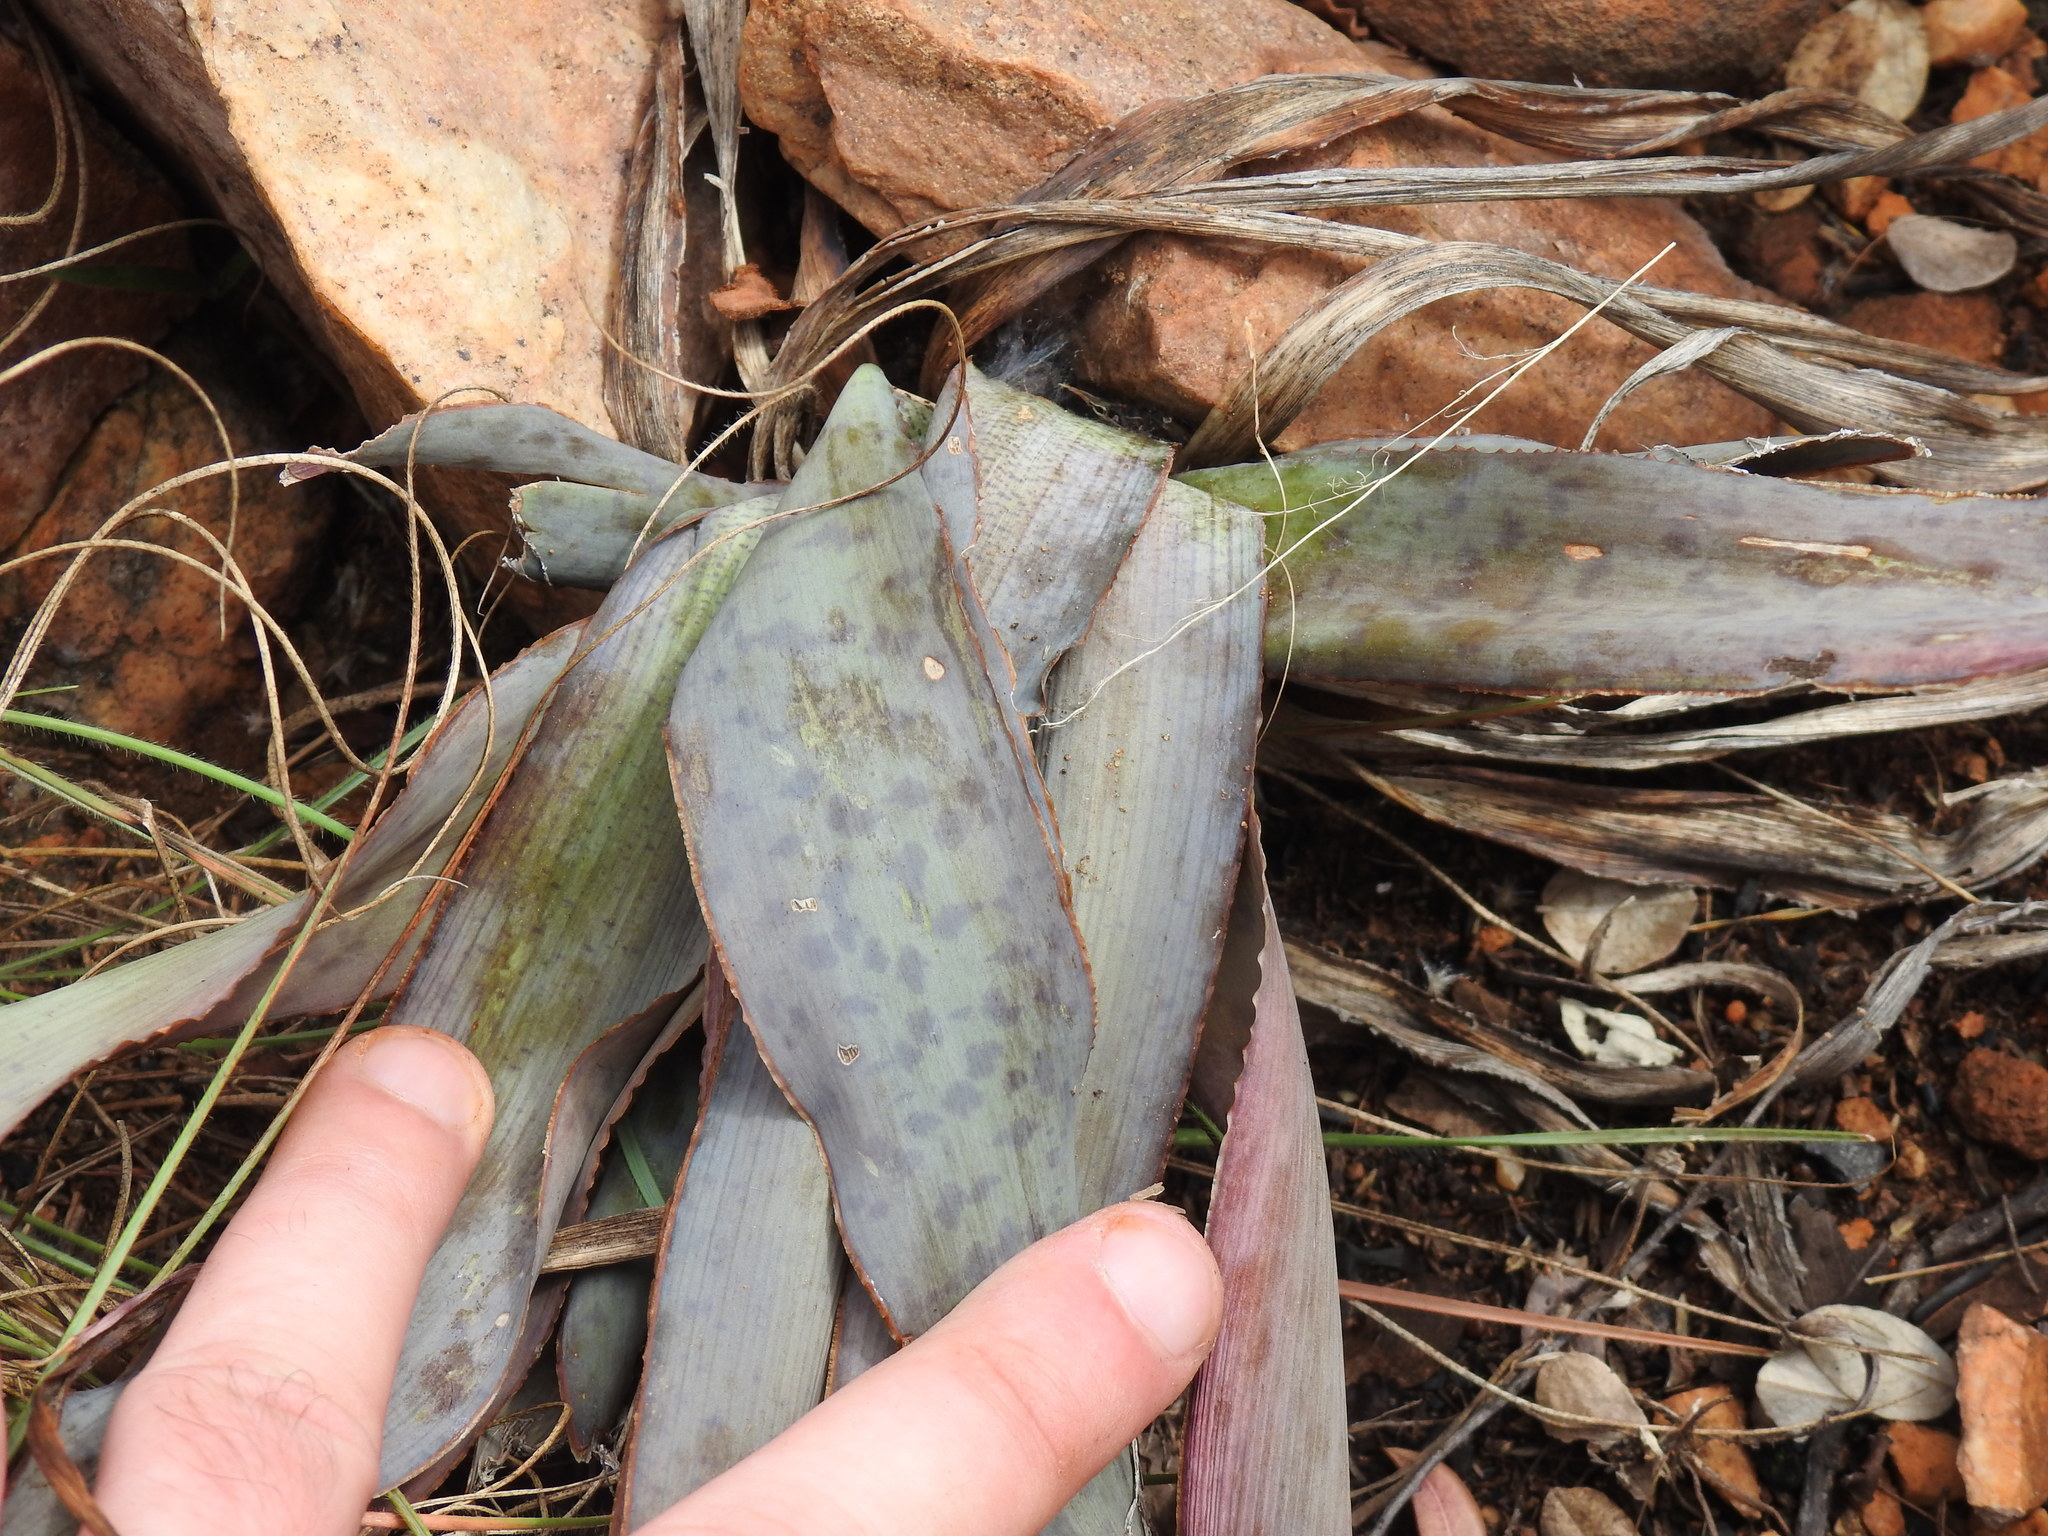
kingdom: Plantae
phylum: Tracheophyta
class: Liliopsida
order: Asparagales
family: Asparagaceae
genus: Ledebouria
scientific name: Ledebouria marginata
